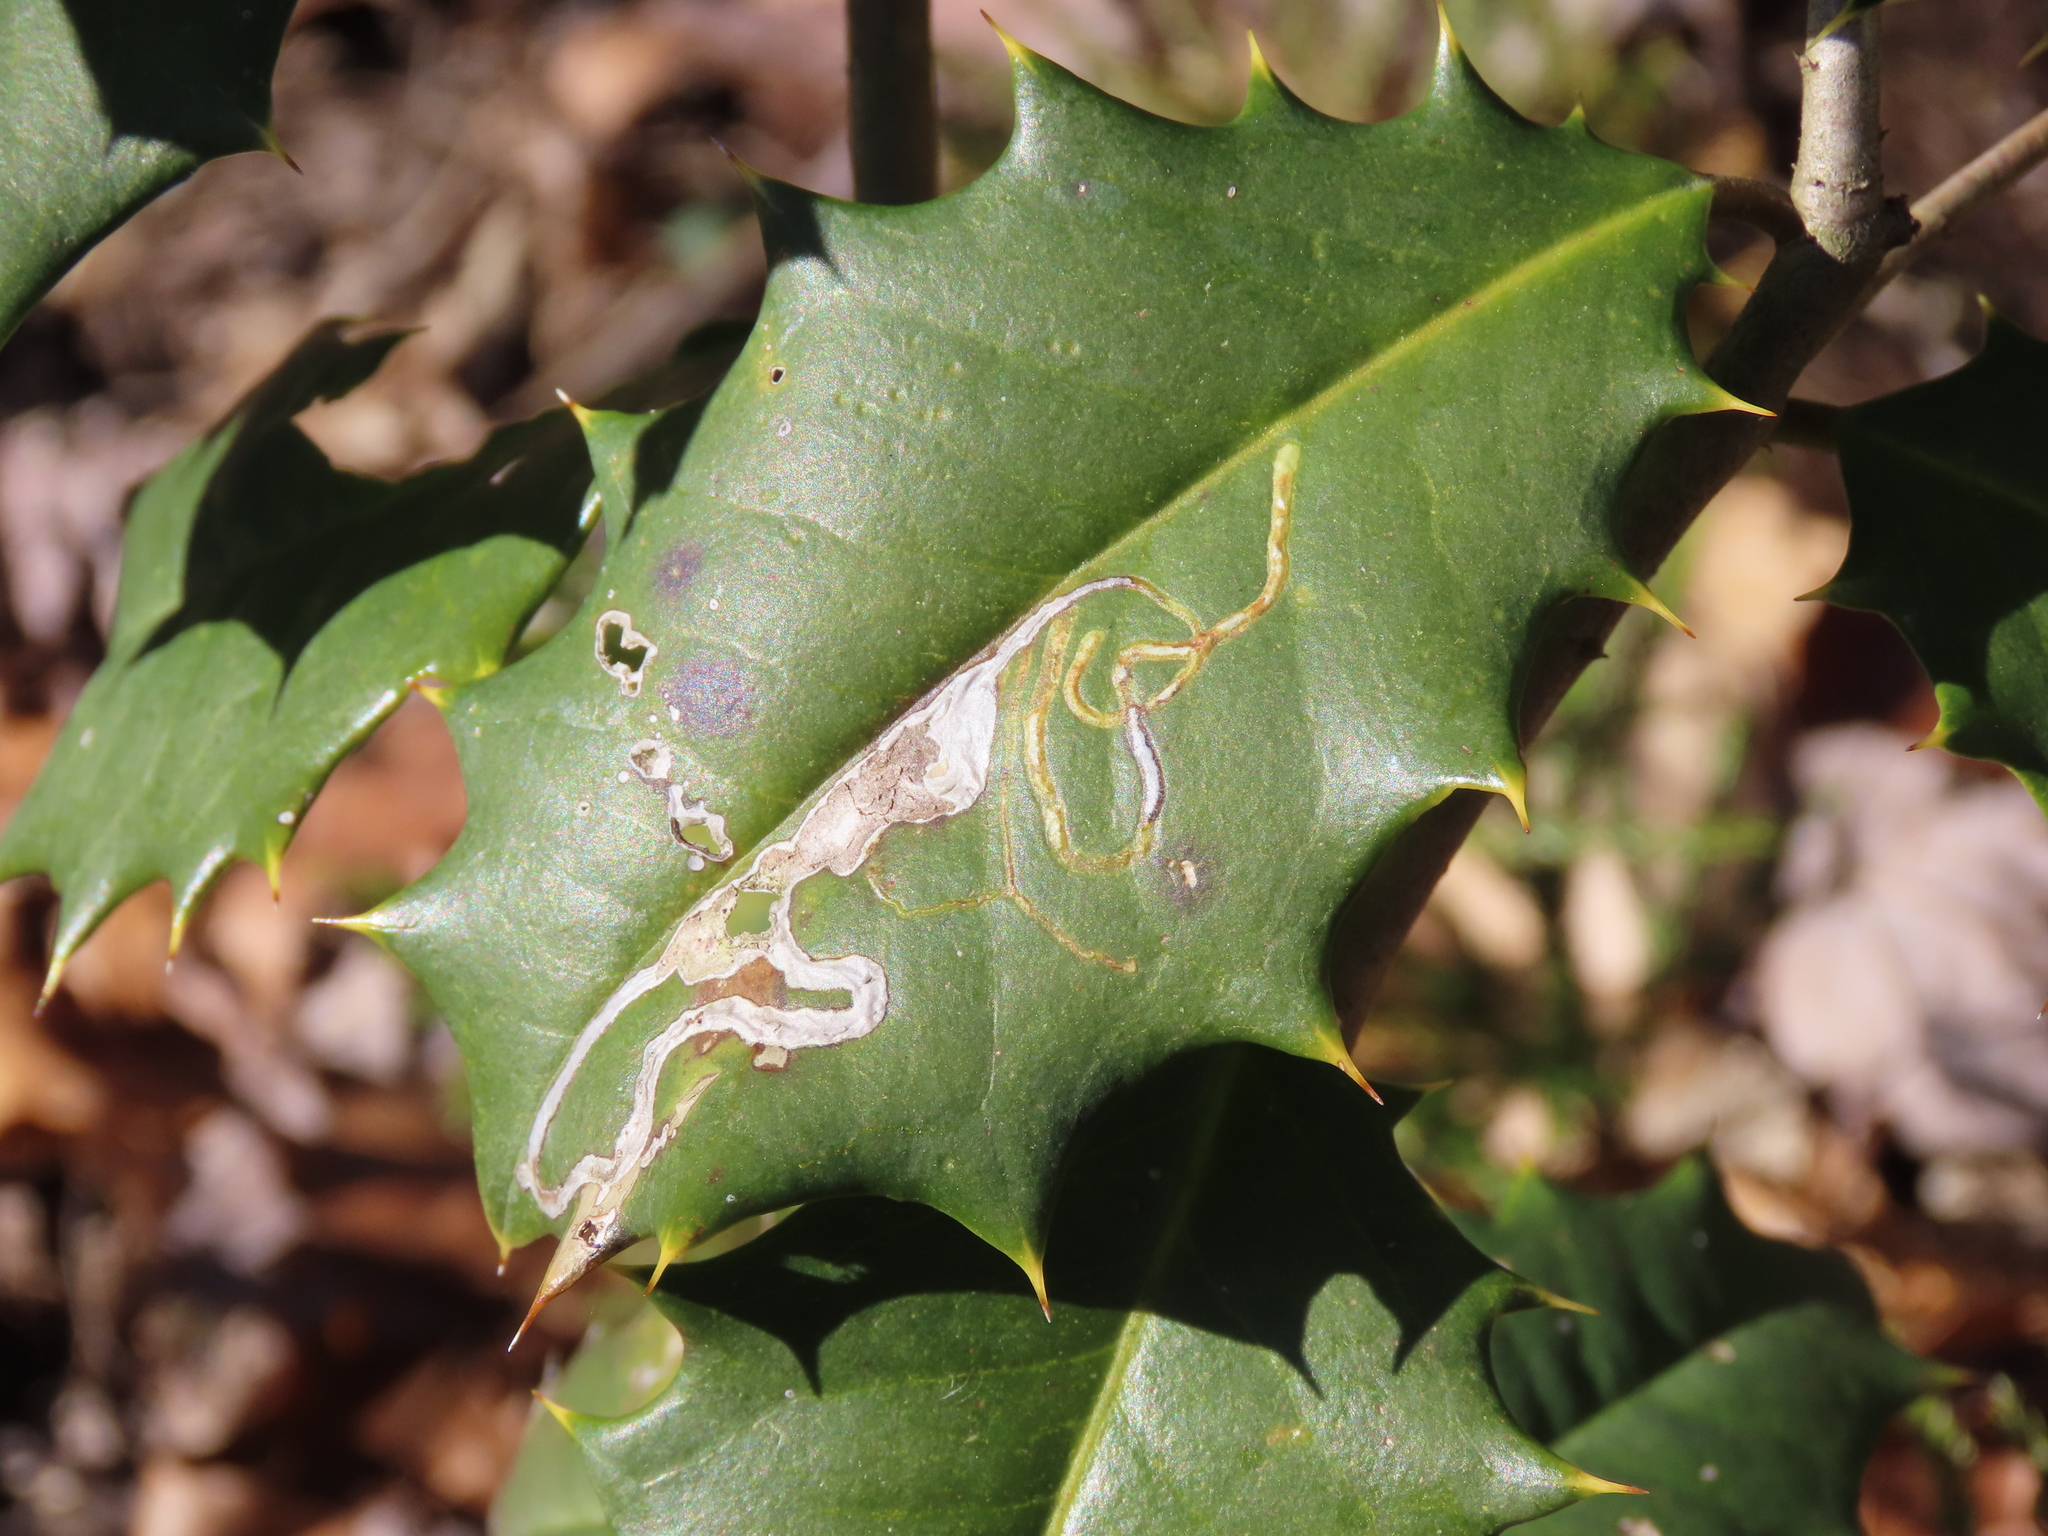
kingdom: Animalia
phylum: Arthropoda
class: Insecta
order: Diptera
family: Agromyzidae
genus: Phytomyza
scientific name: Phytomyza opacae
